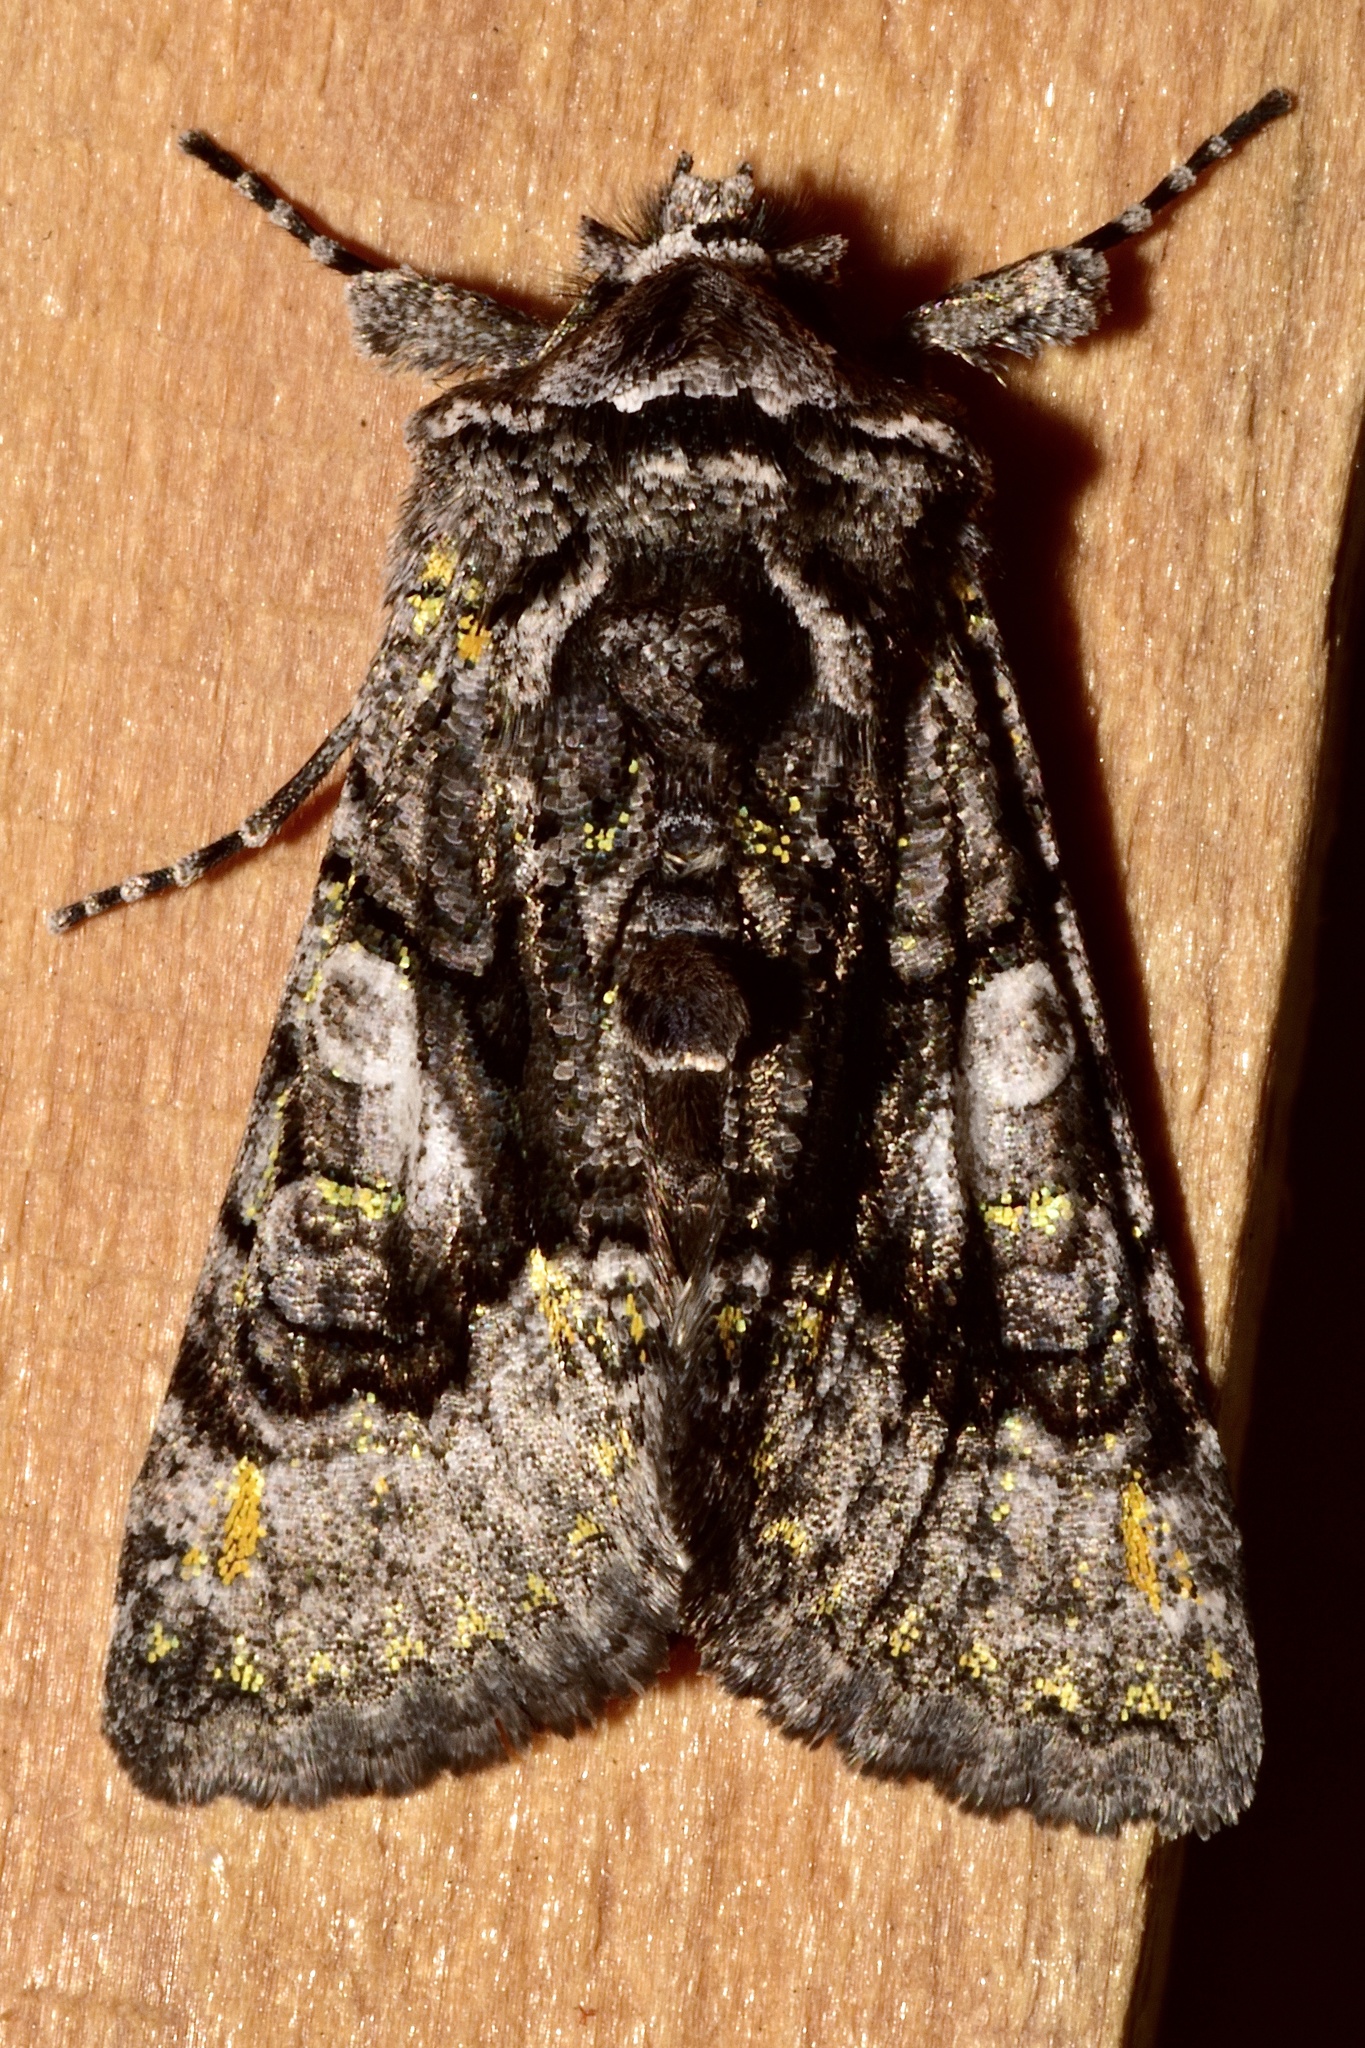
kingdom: Animalia
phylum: Arthropoda
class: Insecta
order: Lepidoptera
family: Noctuidae
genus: Behrensia
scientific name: Behrensia conchiformis
